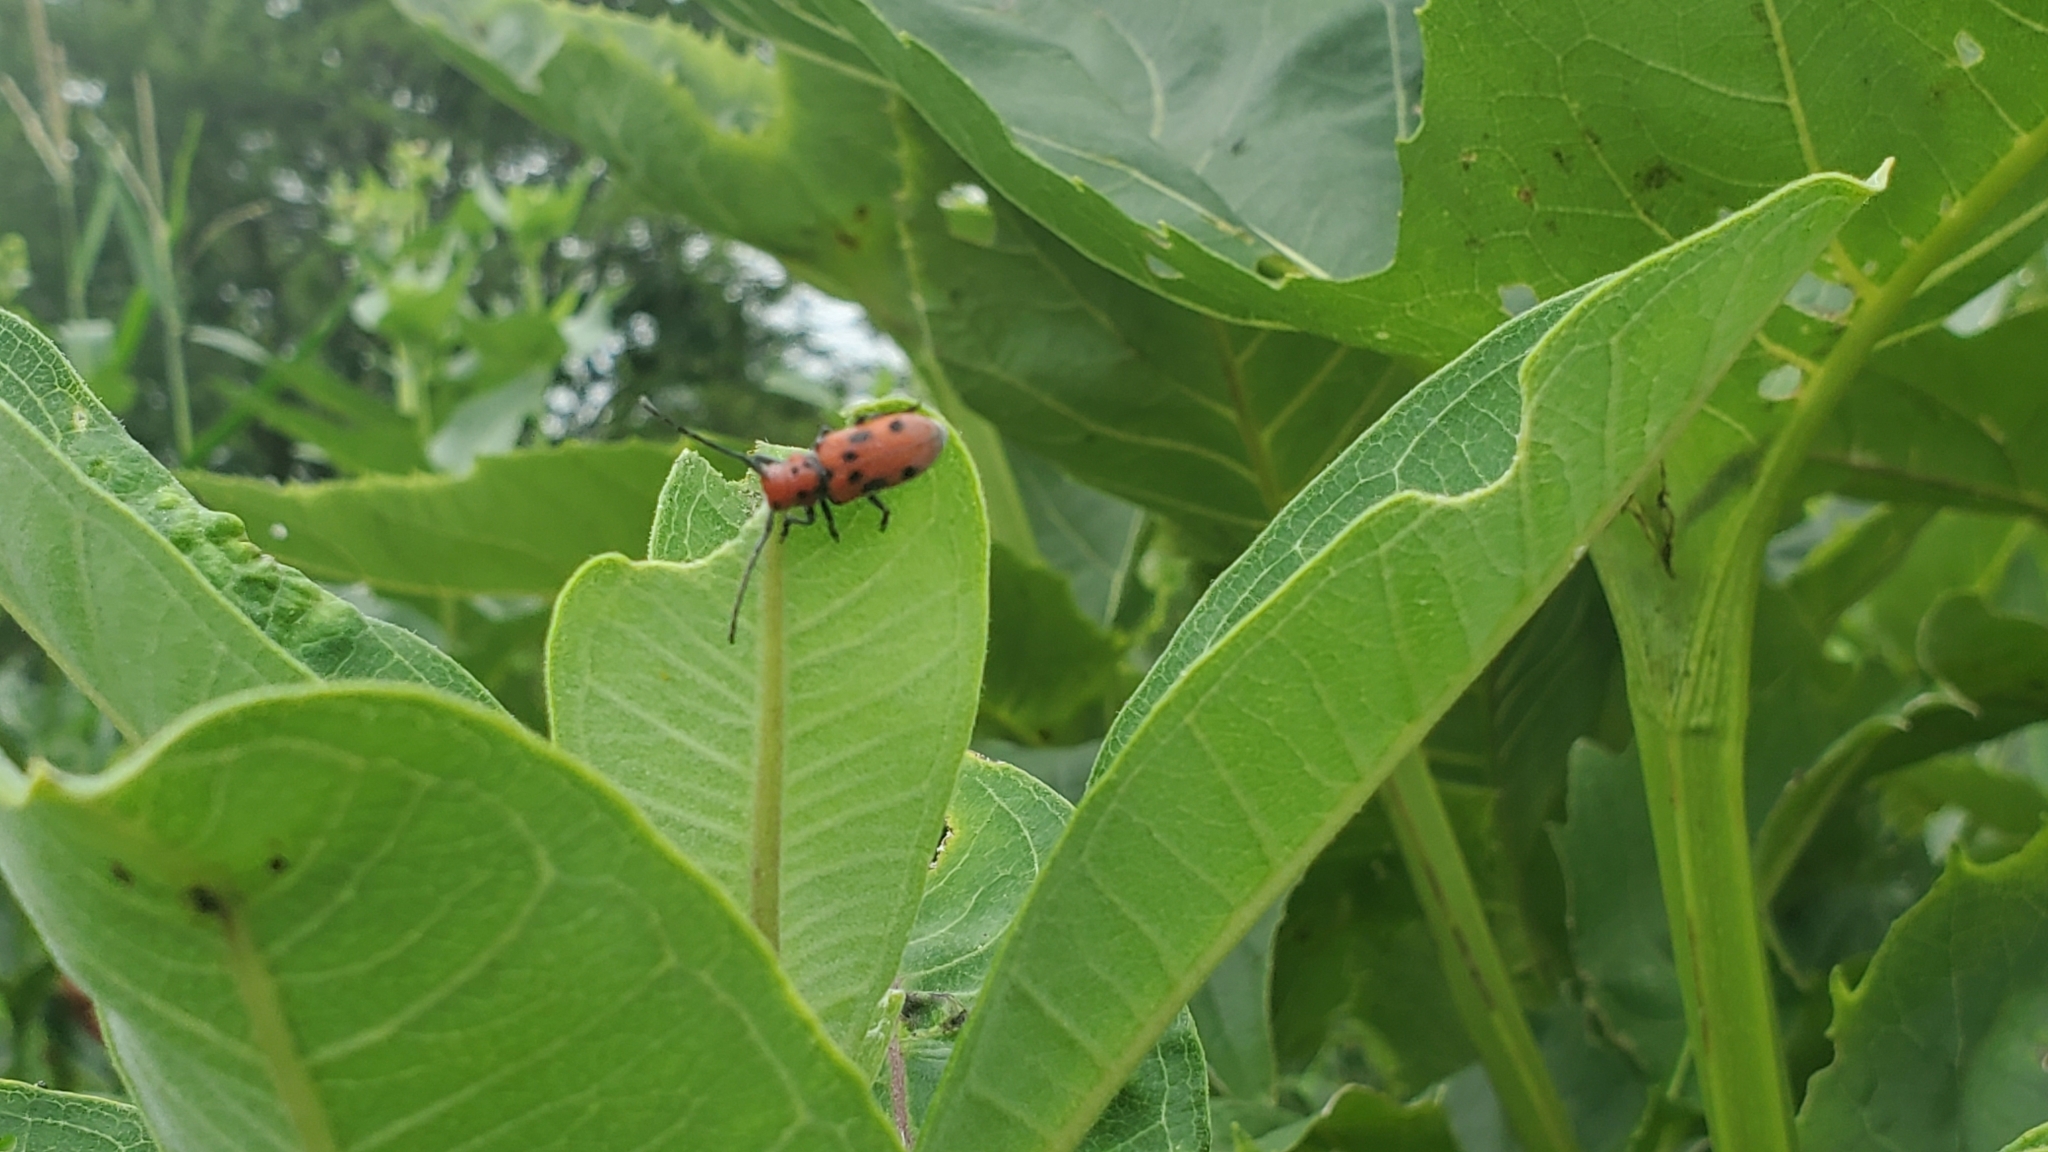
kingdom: Animalia
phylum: Arthropoda
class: Insecta
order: Coleoptera
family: Cerambycidae
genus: Tetraopes
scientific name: Tetraopes tetrophthalmus
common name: Red milkweed beetle
